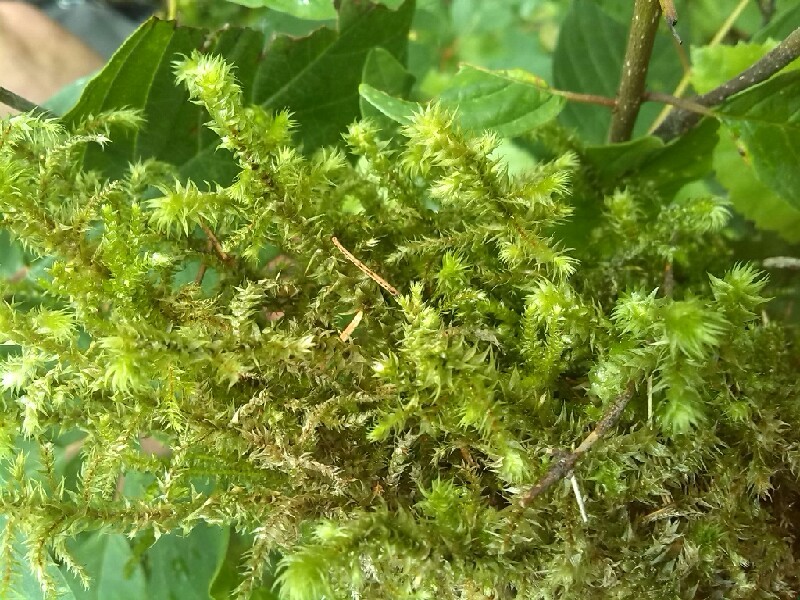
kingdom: Plantae
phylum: Bryophyta
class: Bryopsida
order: Hypnales
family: Hylocomiaceae
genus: Hylocomiadelphus
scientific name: Hylocomiadelphus triquetrus
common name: Rough goose neck moss
